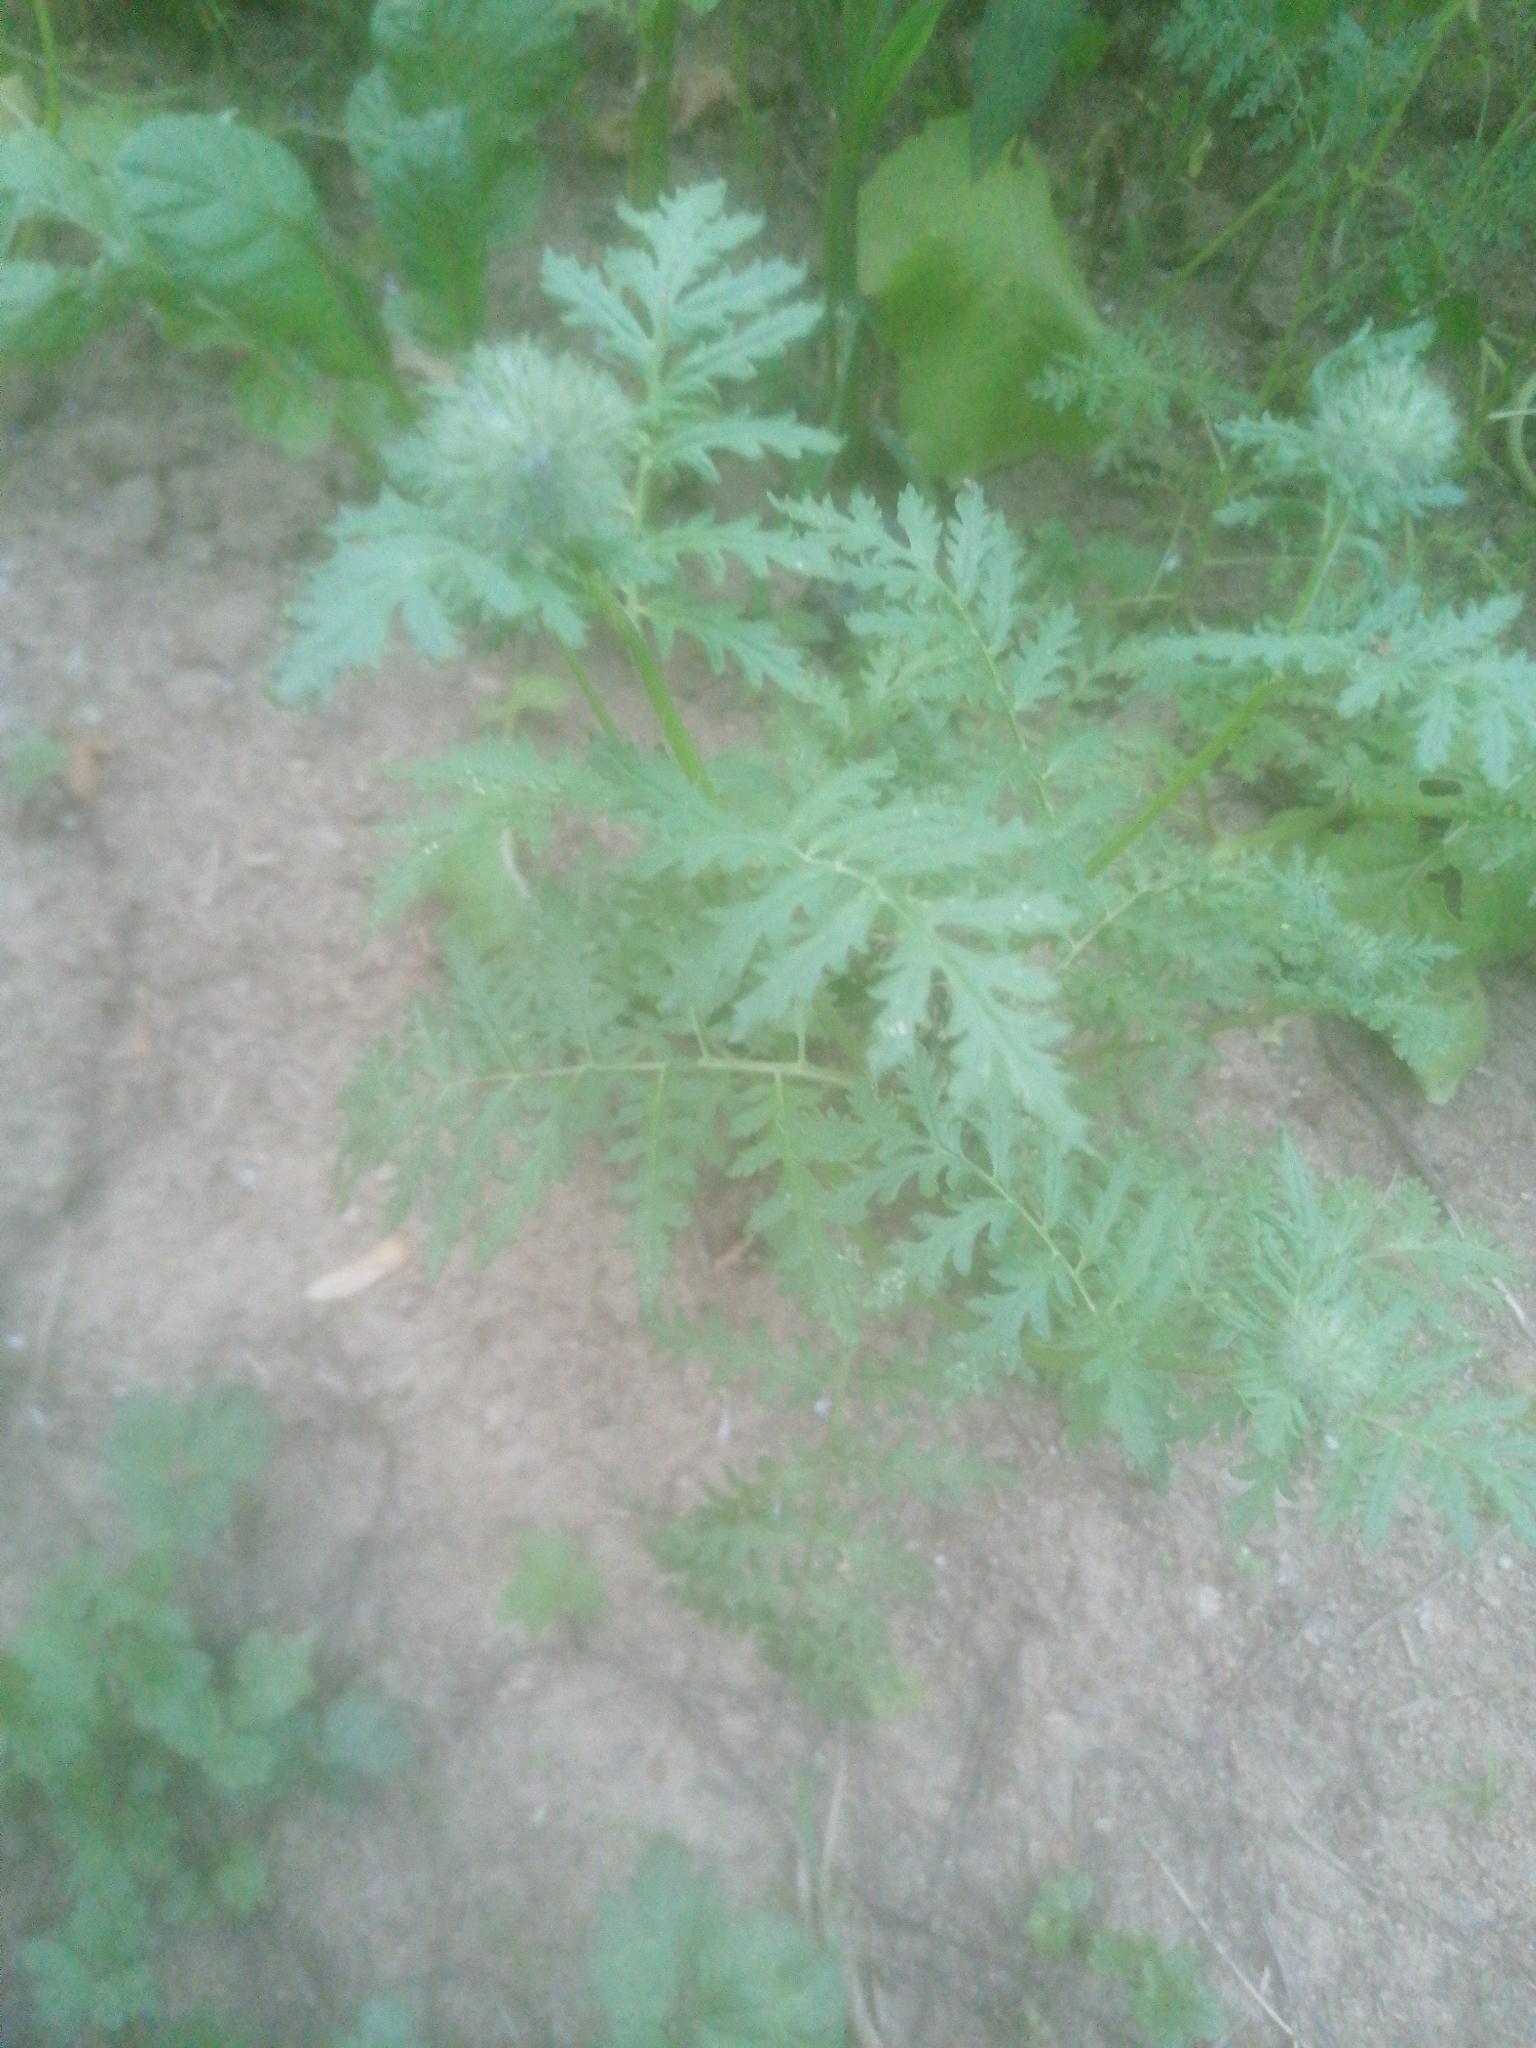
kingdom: Plantae
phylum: Tracheophyta
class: Magnoliopsida
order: Asterales
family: Asteraceae
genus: Tanacetum
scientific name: Tanacetum vulgare
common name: Common tansy
